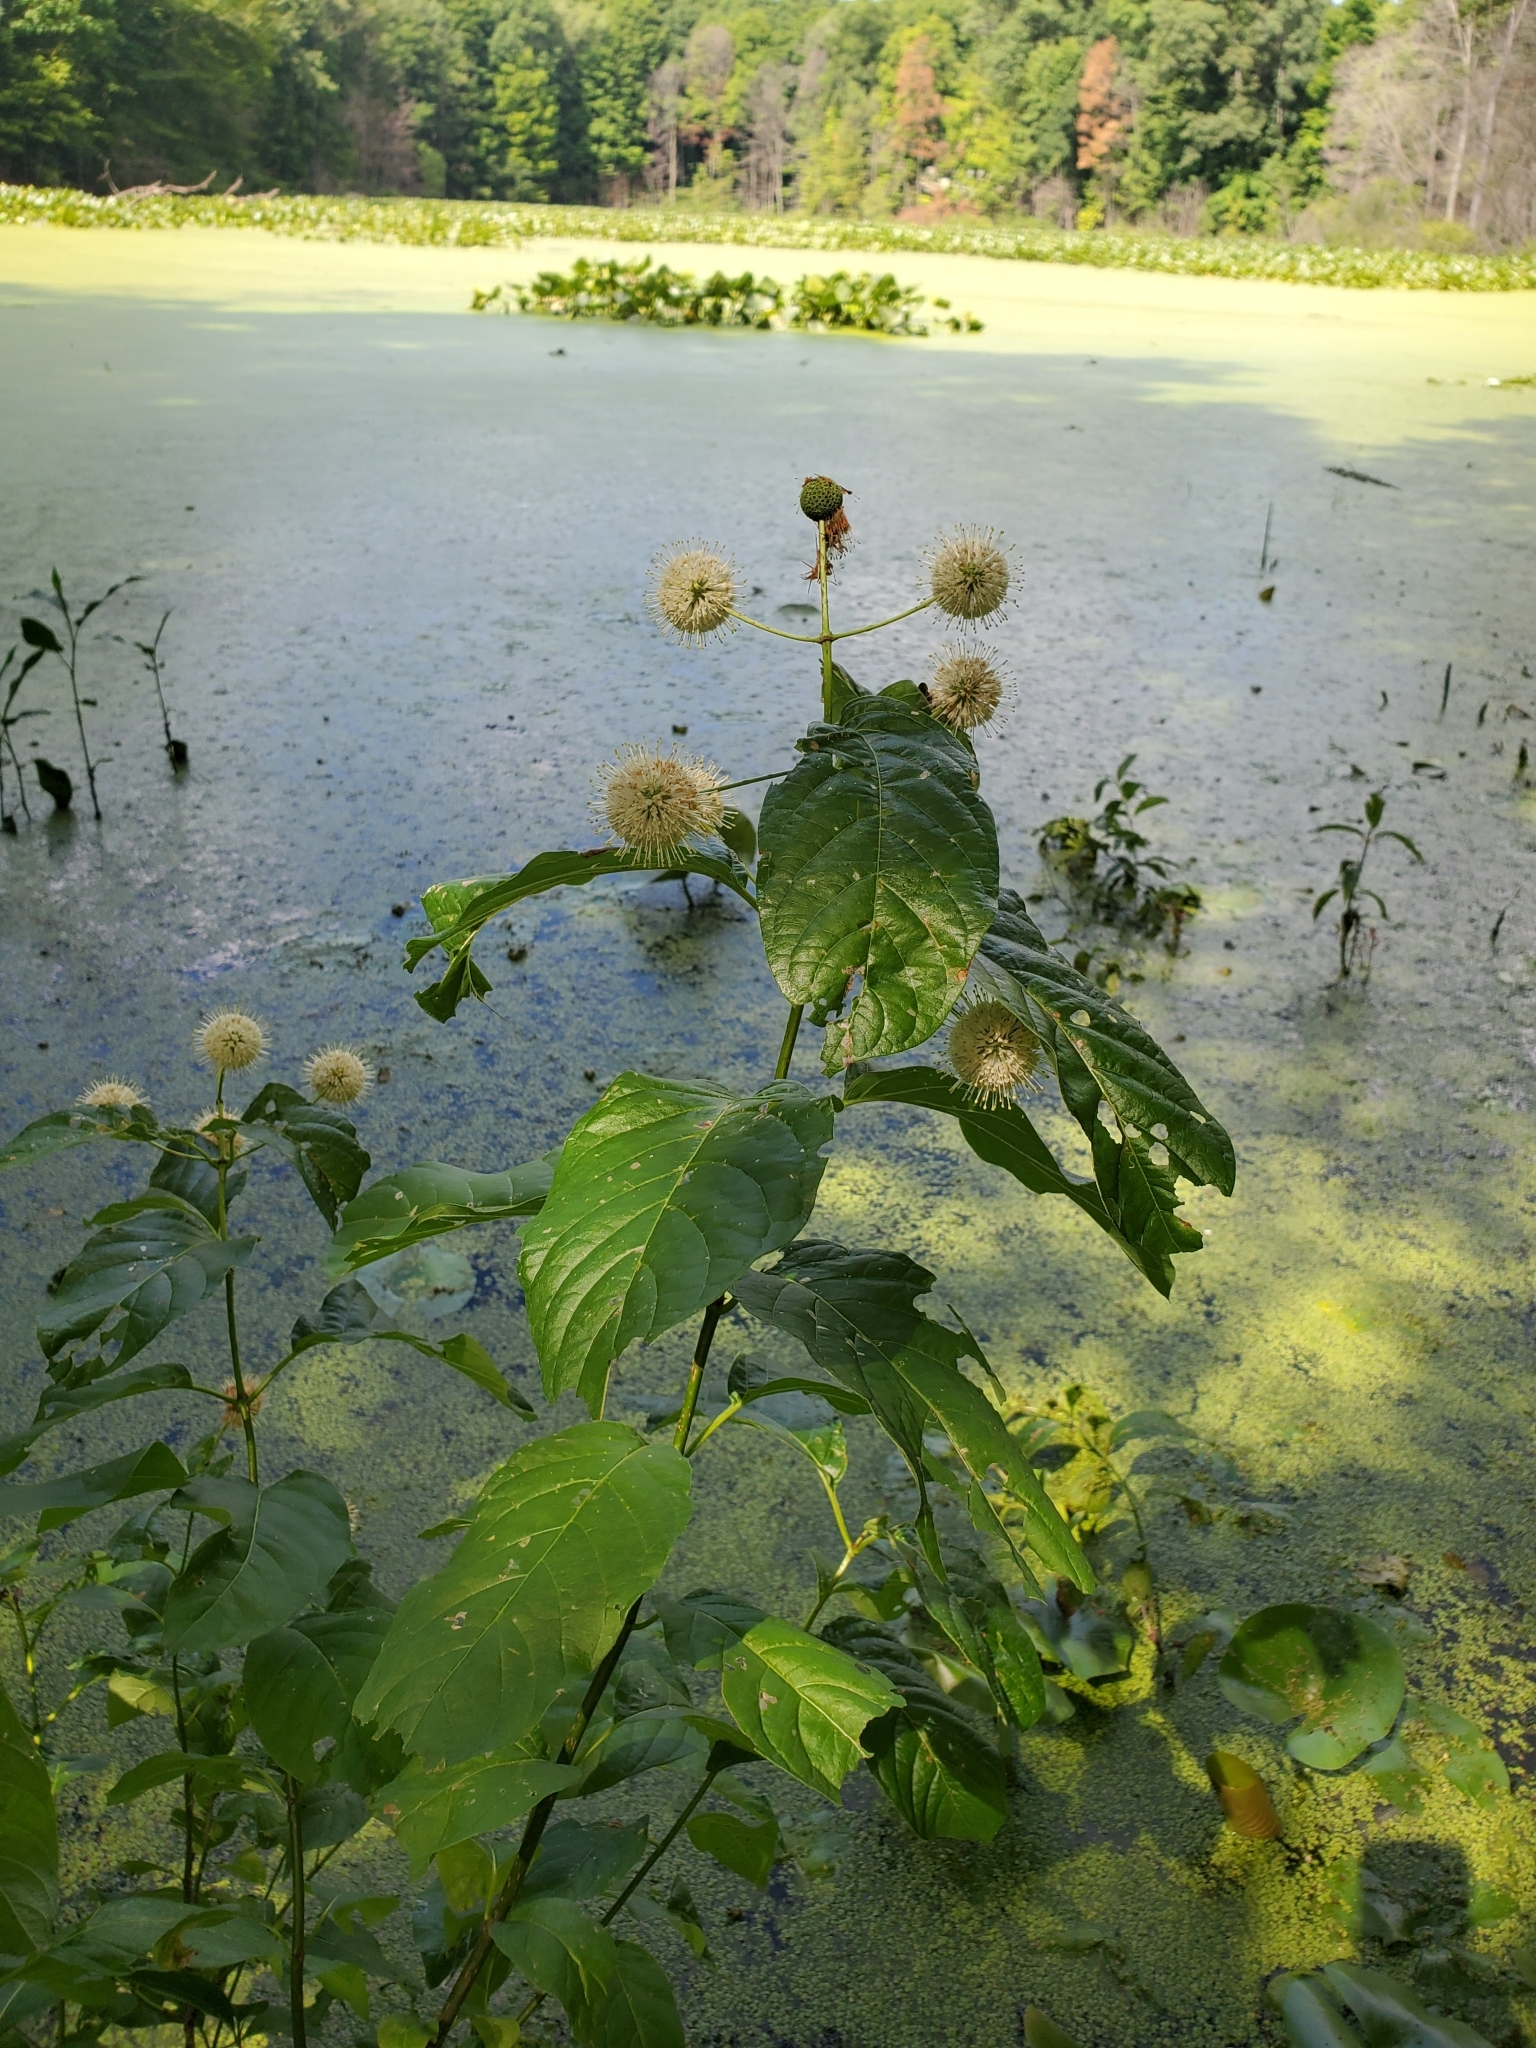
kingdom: Plantae
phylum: Tracheophyta
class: Magnoliopsida
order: Gentianales
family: Rubiaceae
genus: Cephalanthus
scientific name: Cephalanthus occidentalis
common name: Button-willow
